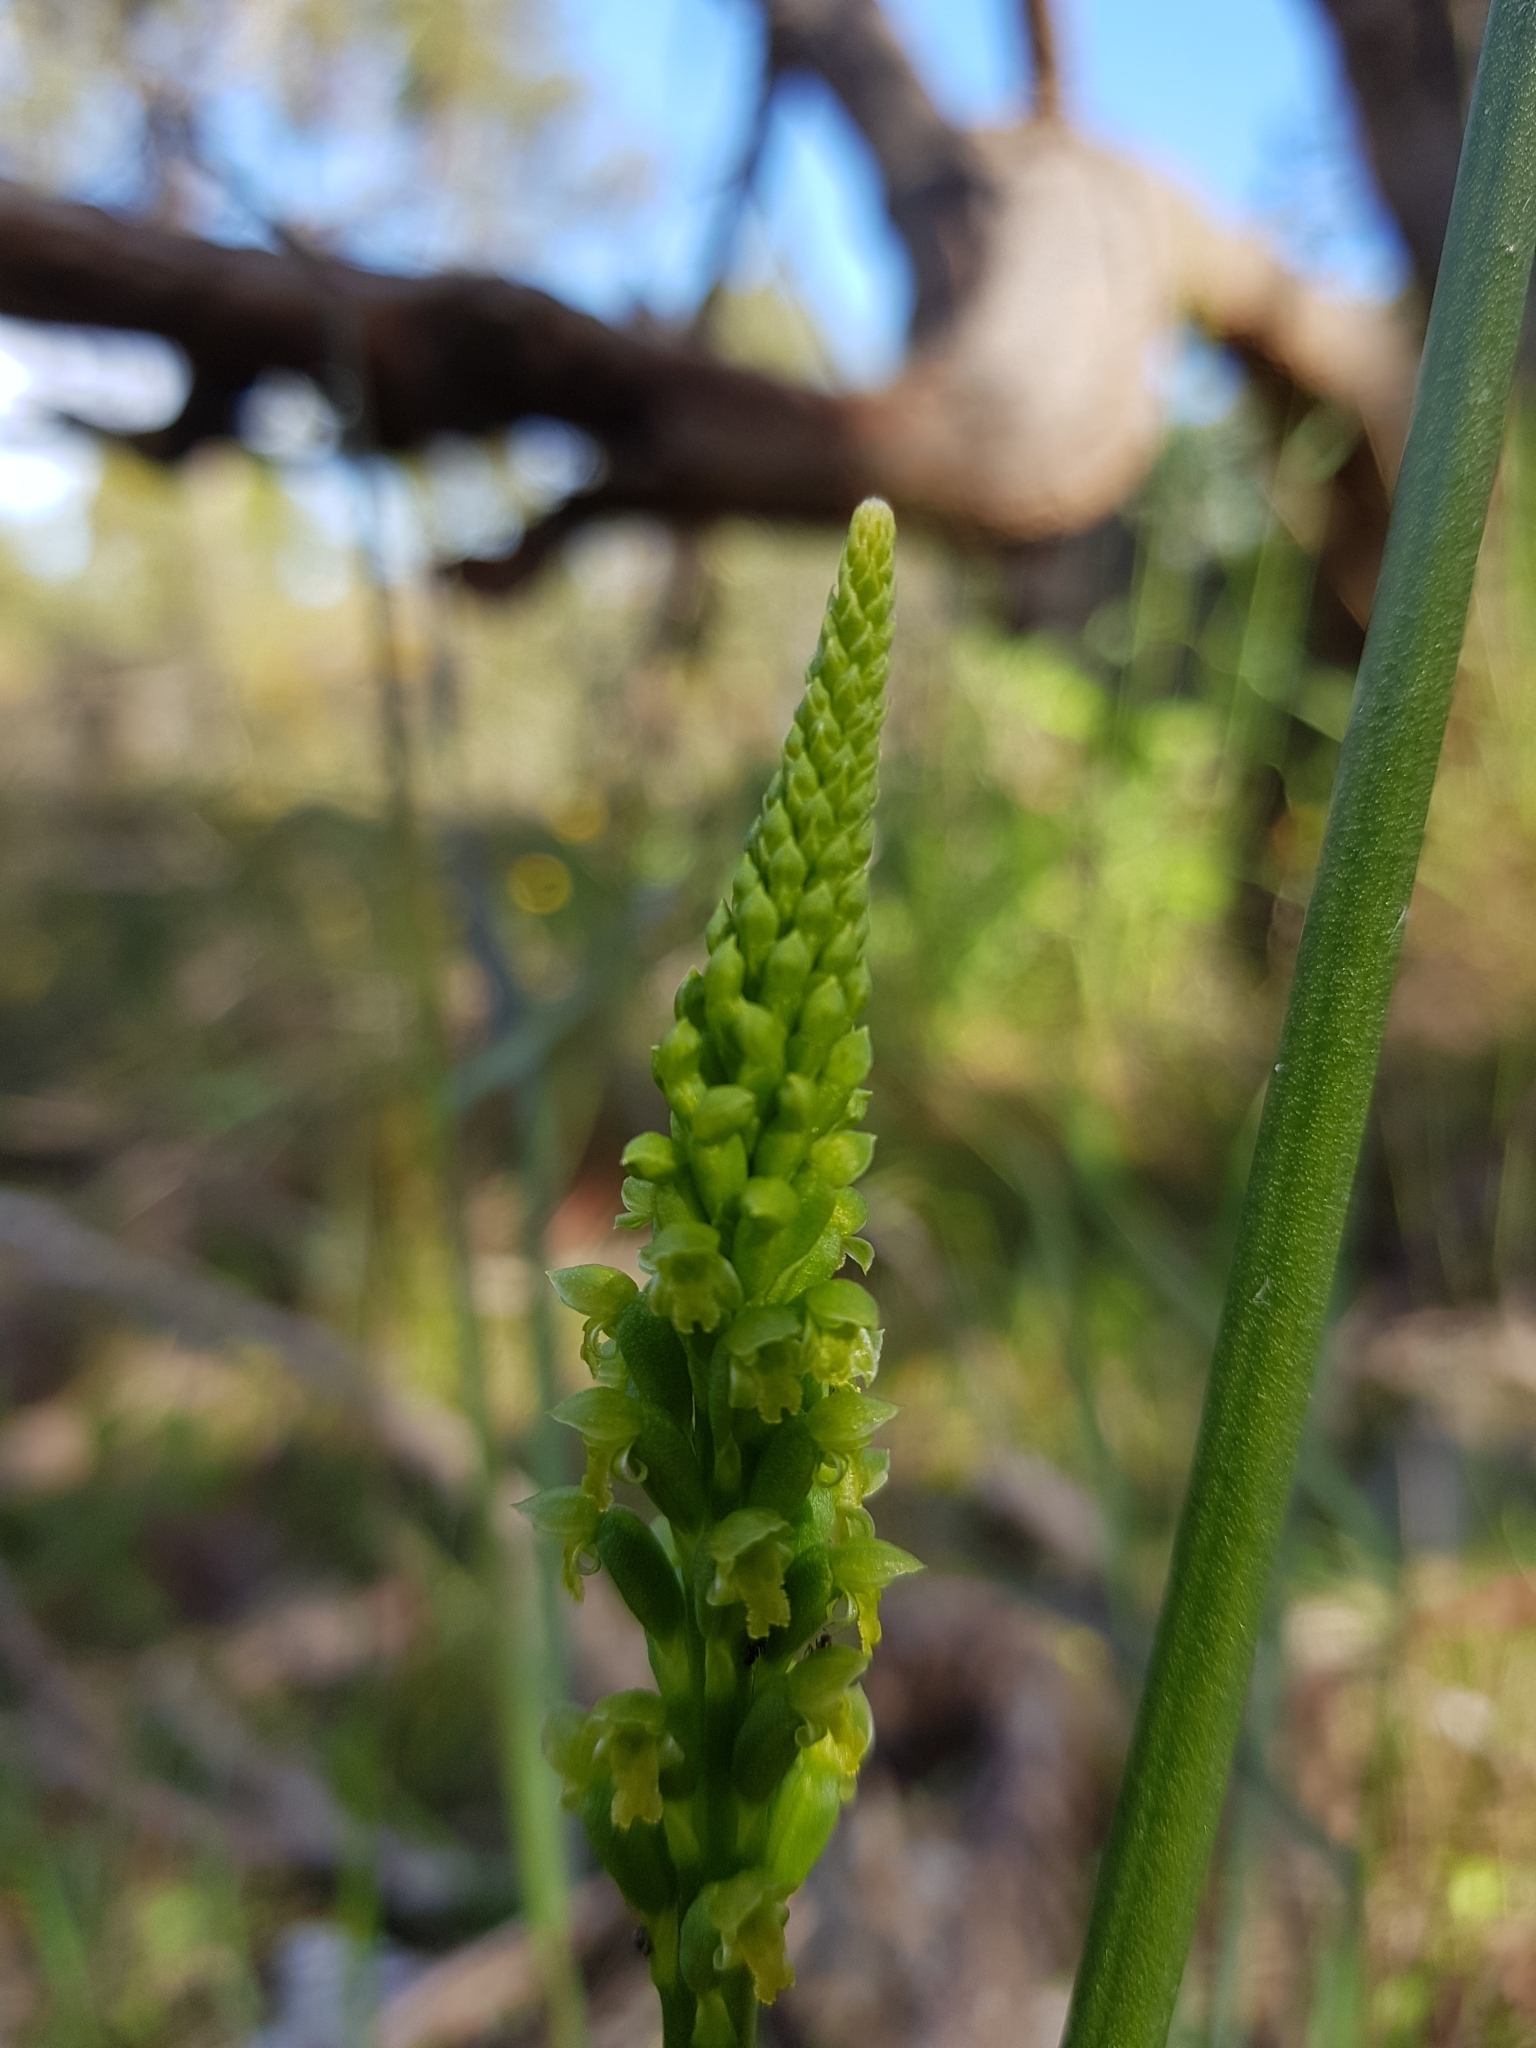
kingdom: Plantae
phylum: Tracheophyta
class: Liliopsida
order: Asparagales
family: Orchidaceae
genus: Microtis
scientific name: Microtis media
